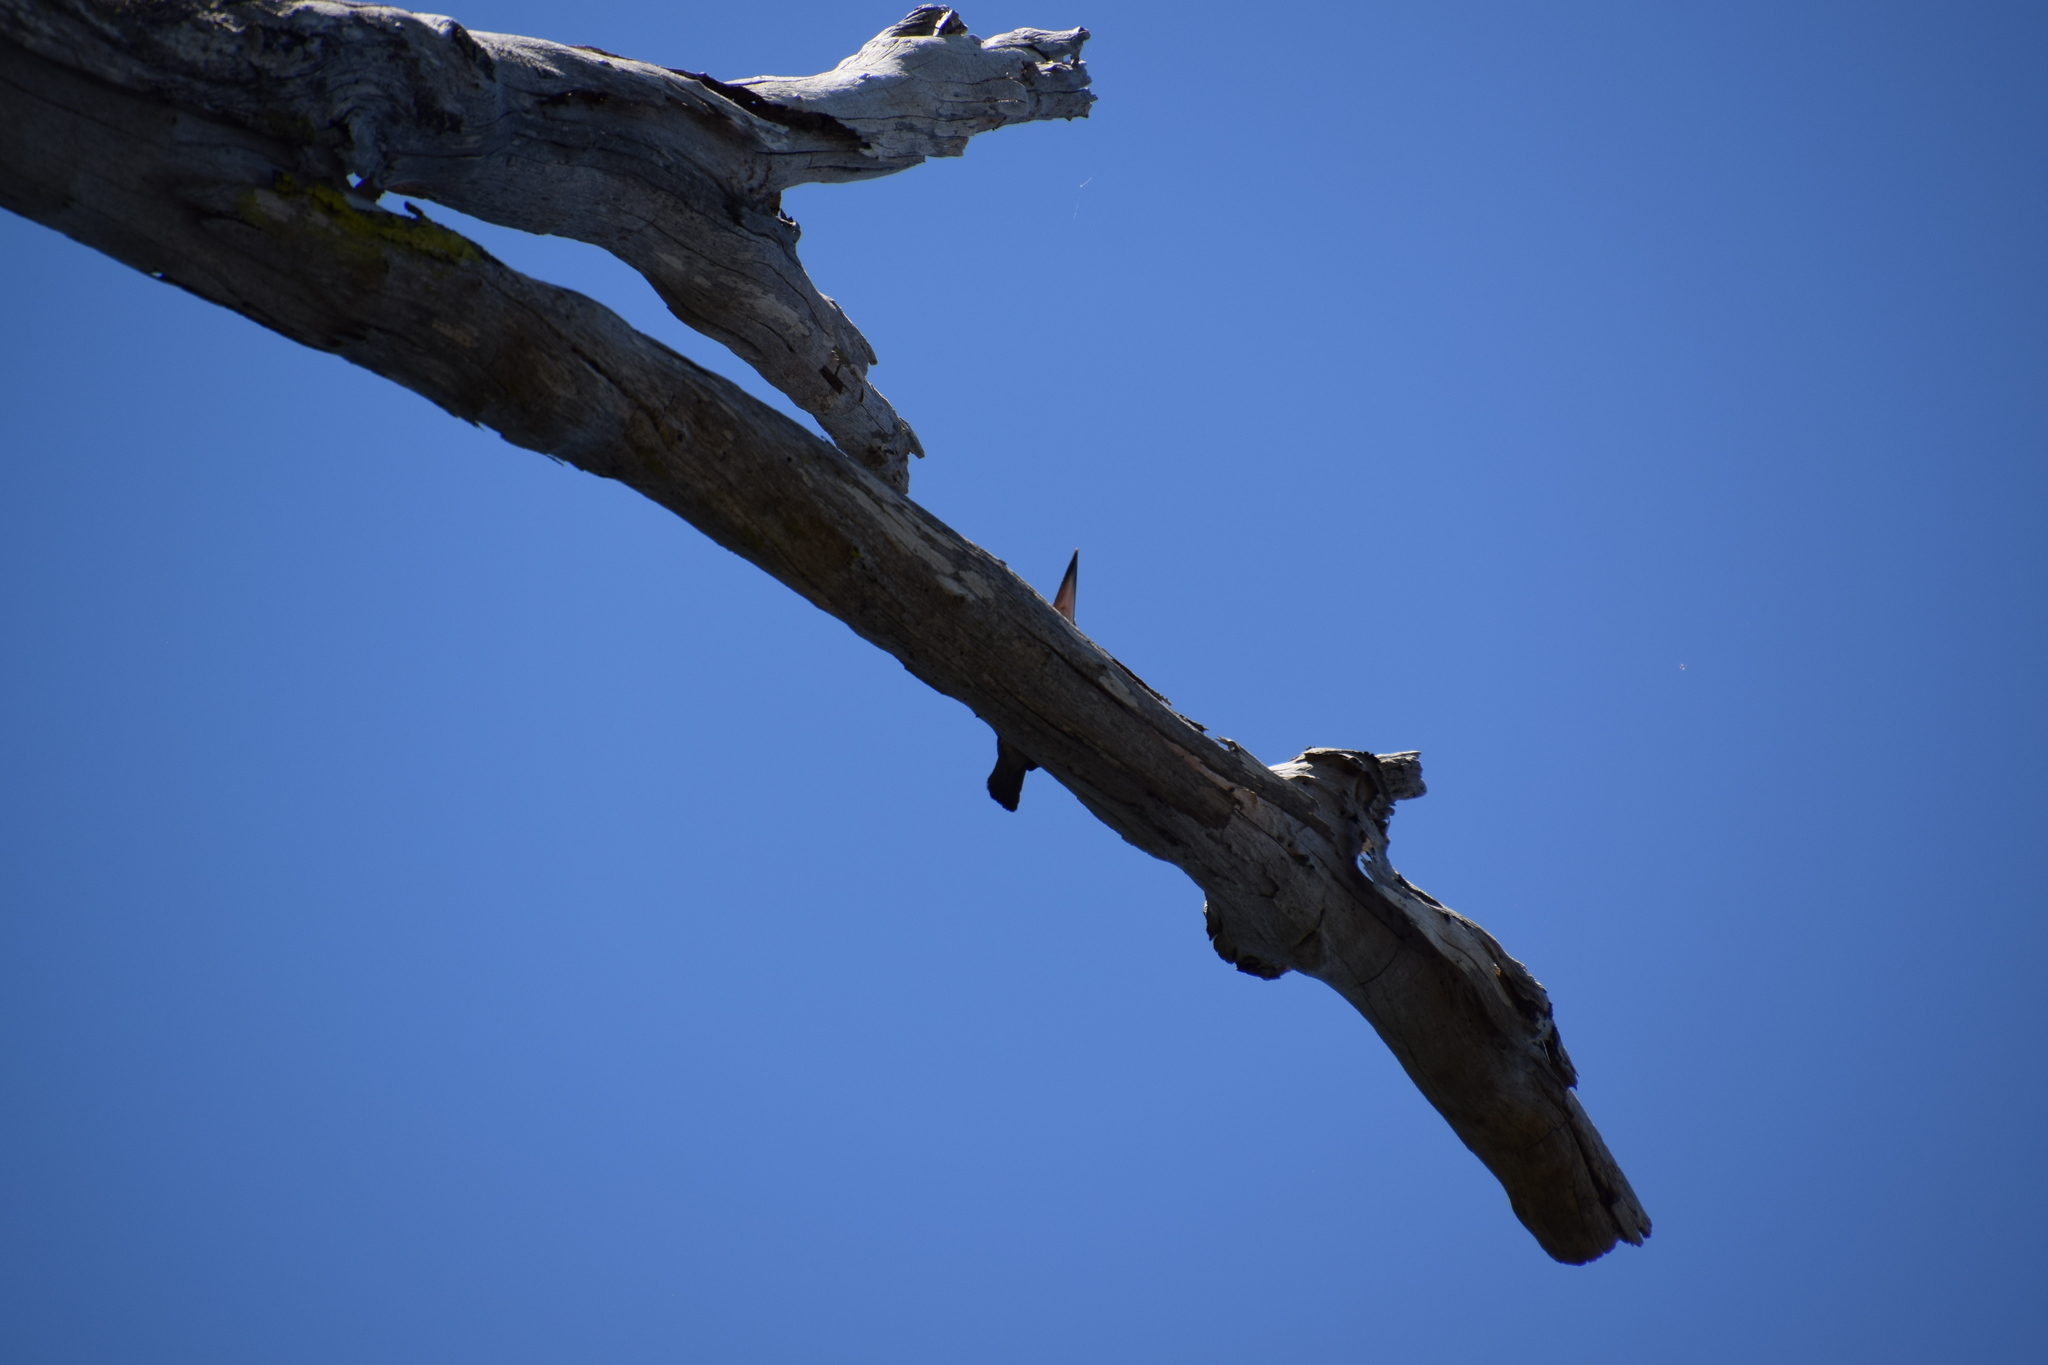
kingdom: Animalia
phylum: Chordata
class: Aves
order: Coraciiformes
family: Alcedinidae
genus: Todiramphus
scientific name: Todiramphus sanctus
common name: Sacred kingfisher
